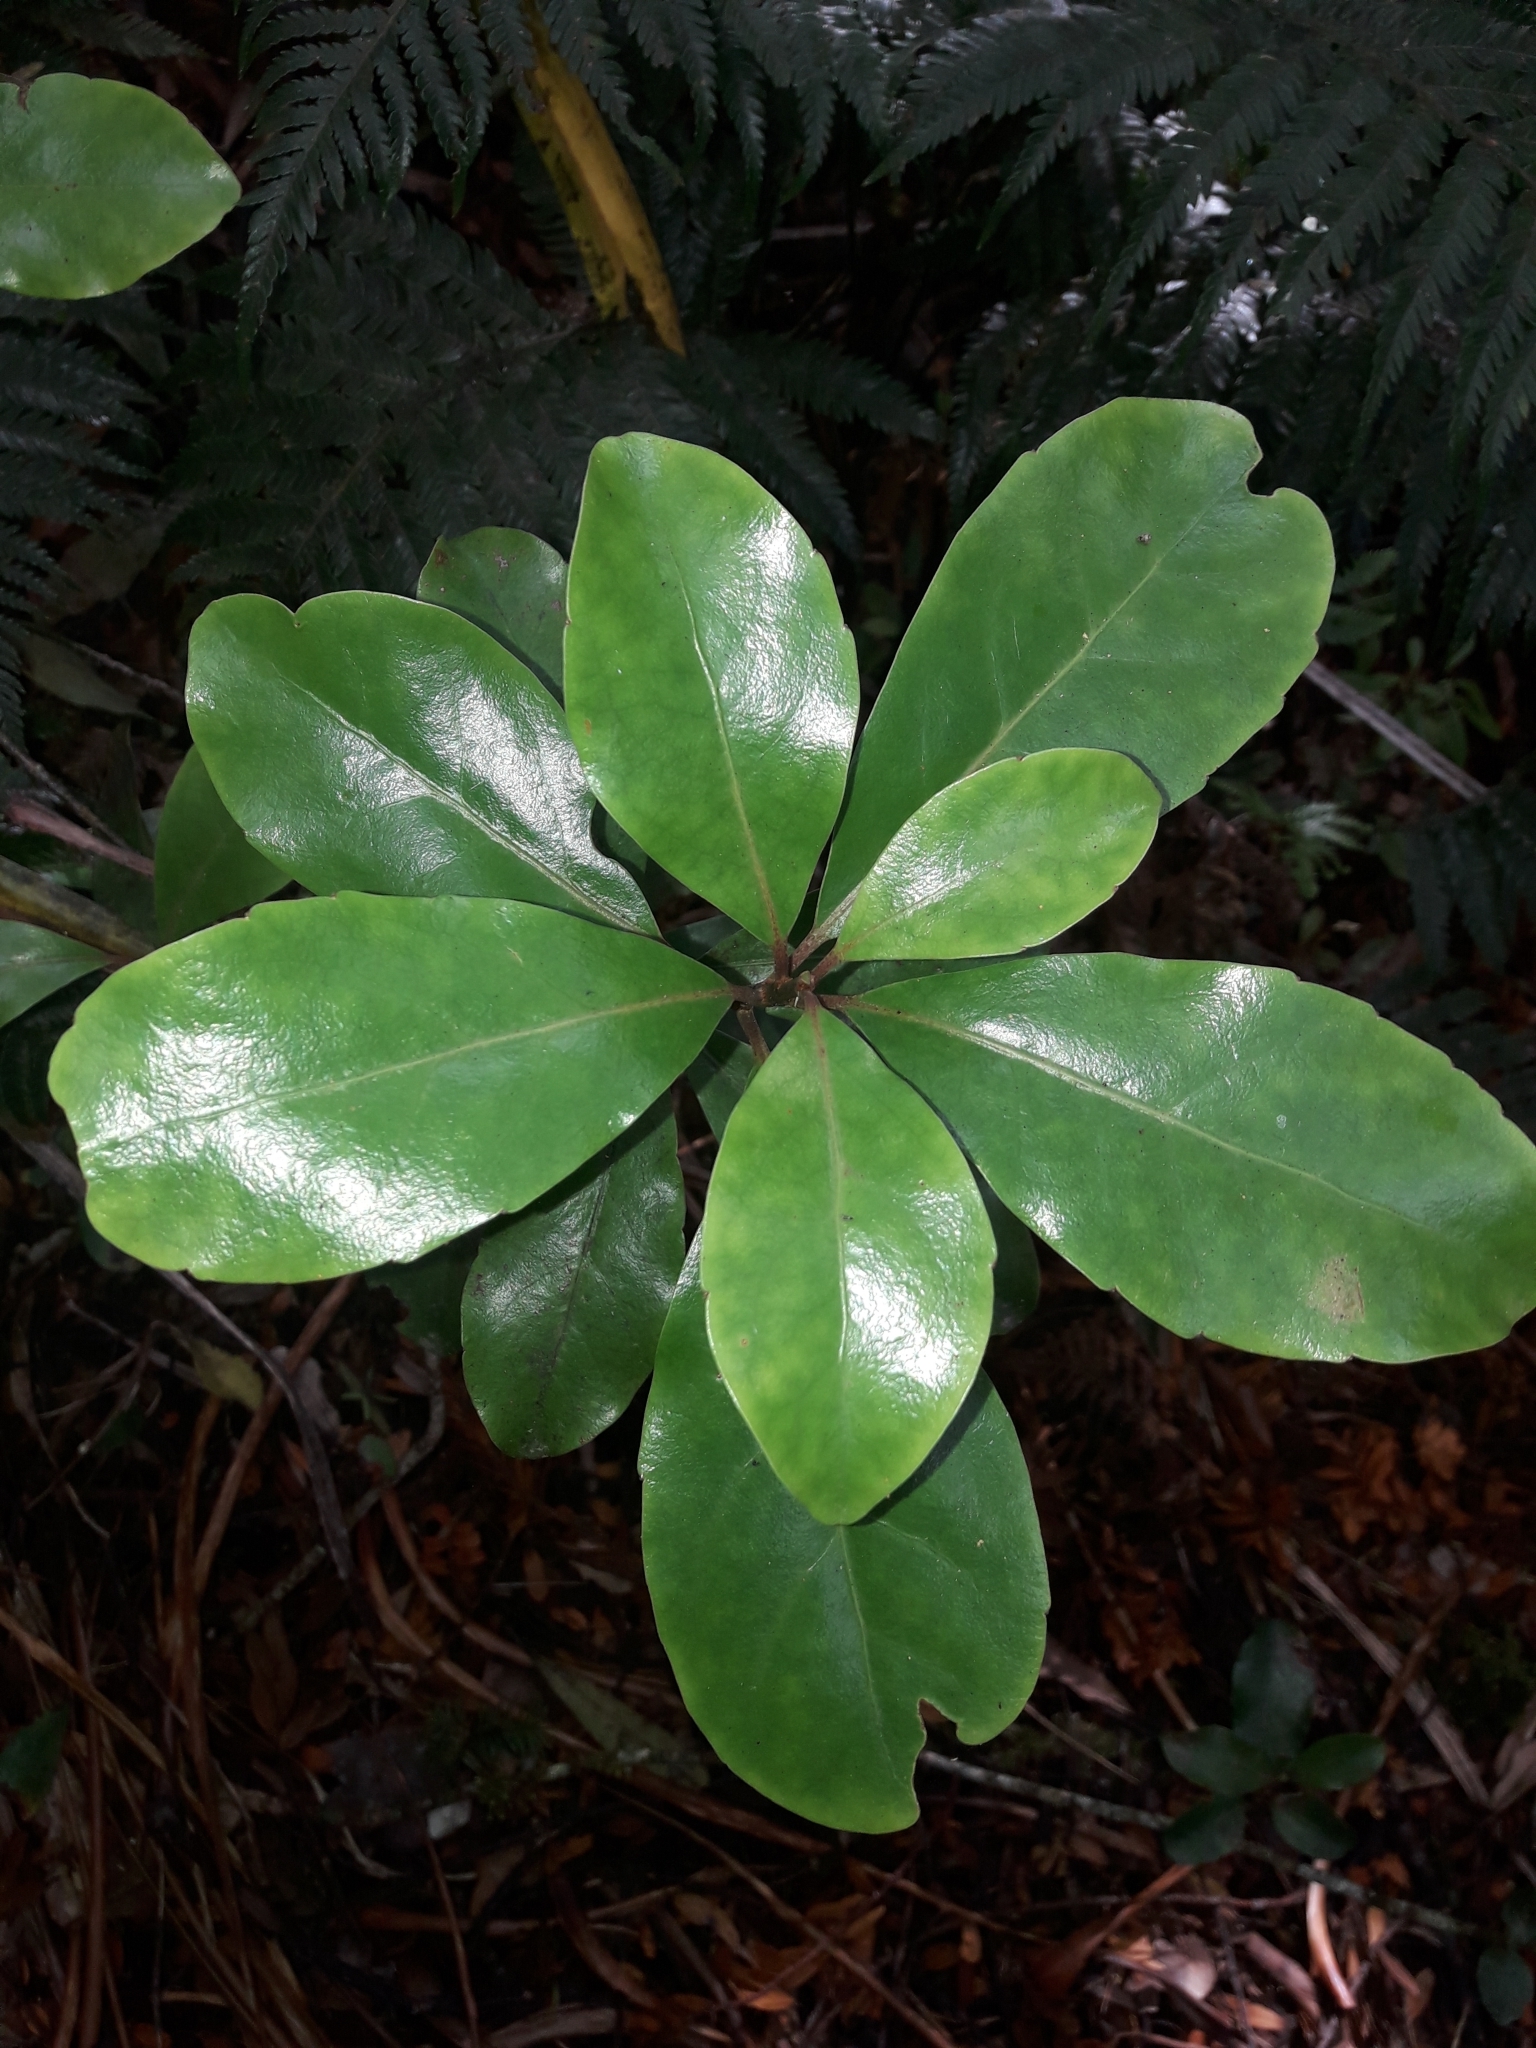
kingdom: Plantae
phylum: Tracheophyta
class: Magnoliopsida
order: Asterales
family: Alseuosmiaceae
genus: Alseuosmia
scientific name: Alseuosmia macrophylla
